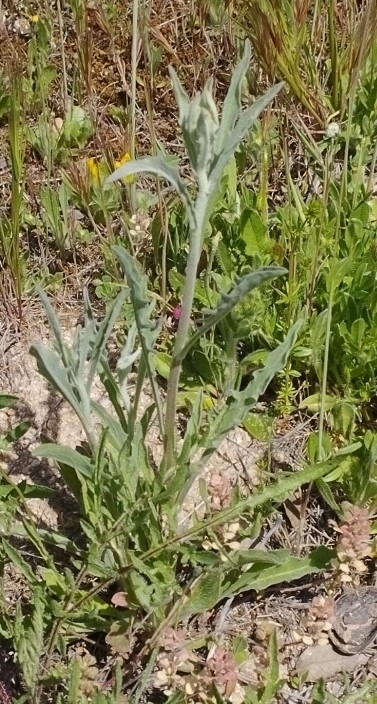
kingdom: Plantae
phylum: Tracheophyta
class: Magnoliopsida
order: Asterales
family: Asteraceae
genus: Andryala
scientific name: Andryala integrifolia
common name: Common andryala
